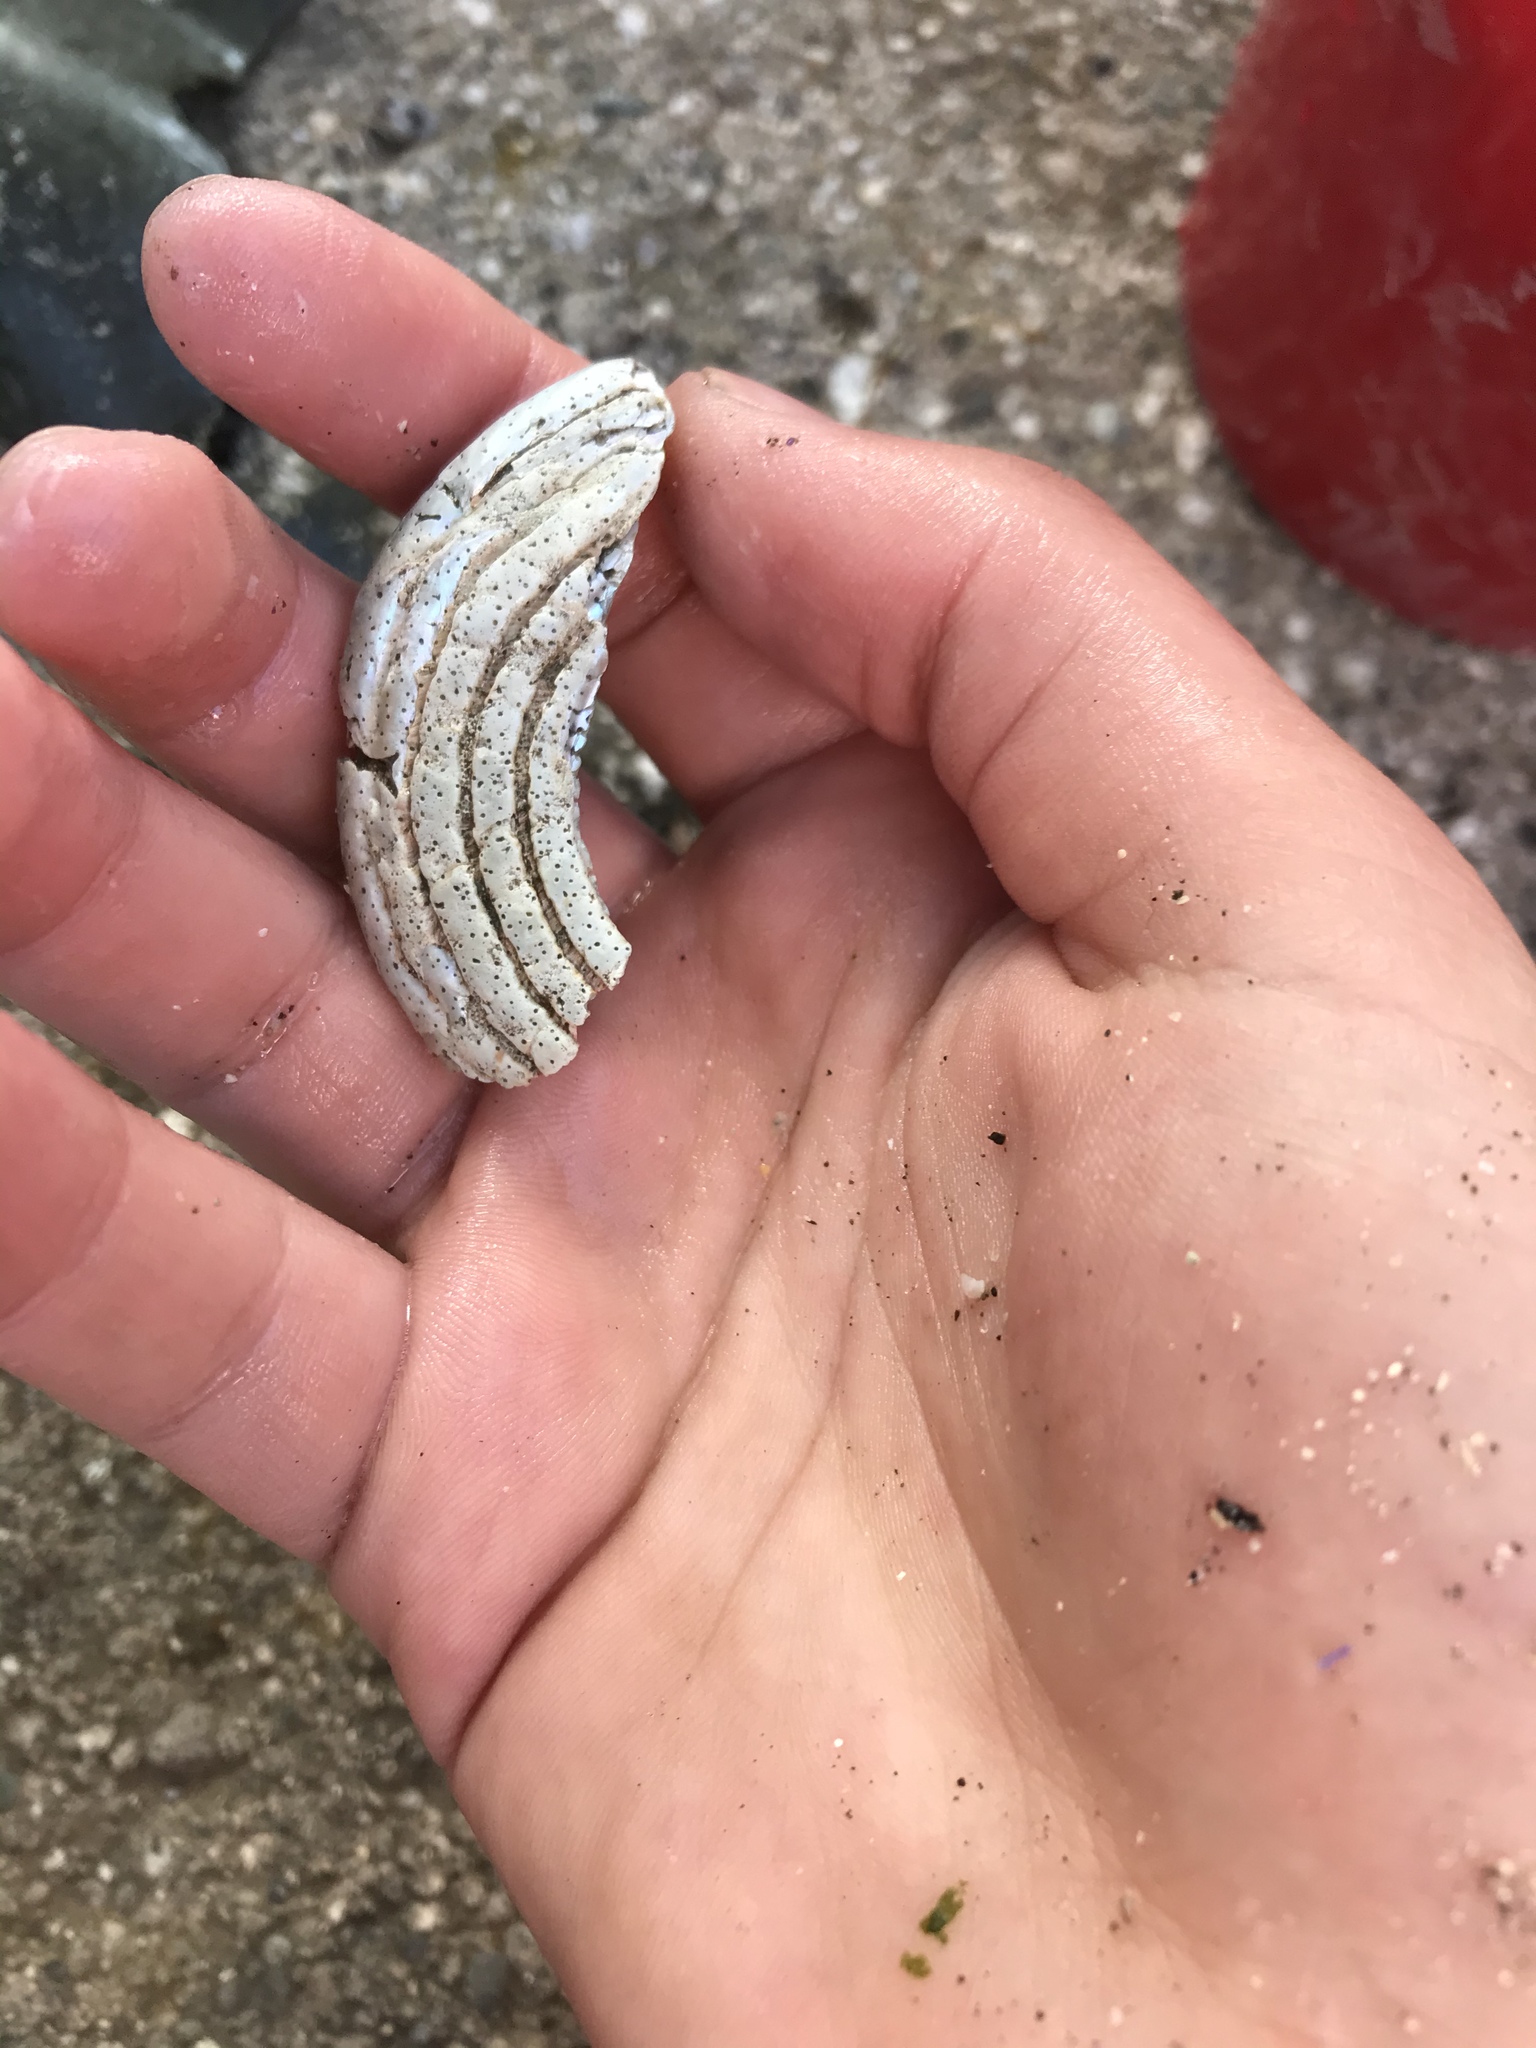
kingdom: Animalia
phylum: Mollusca
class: Gastropoda
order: Trochida
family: Turbinidae
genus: Pomaulax
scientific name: Pomaulax gibberosus
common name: Red turban
